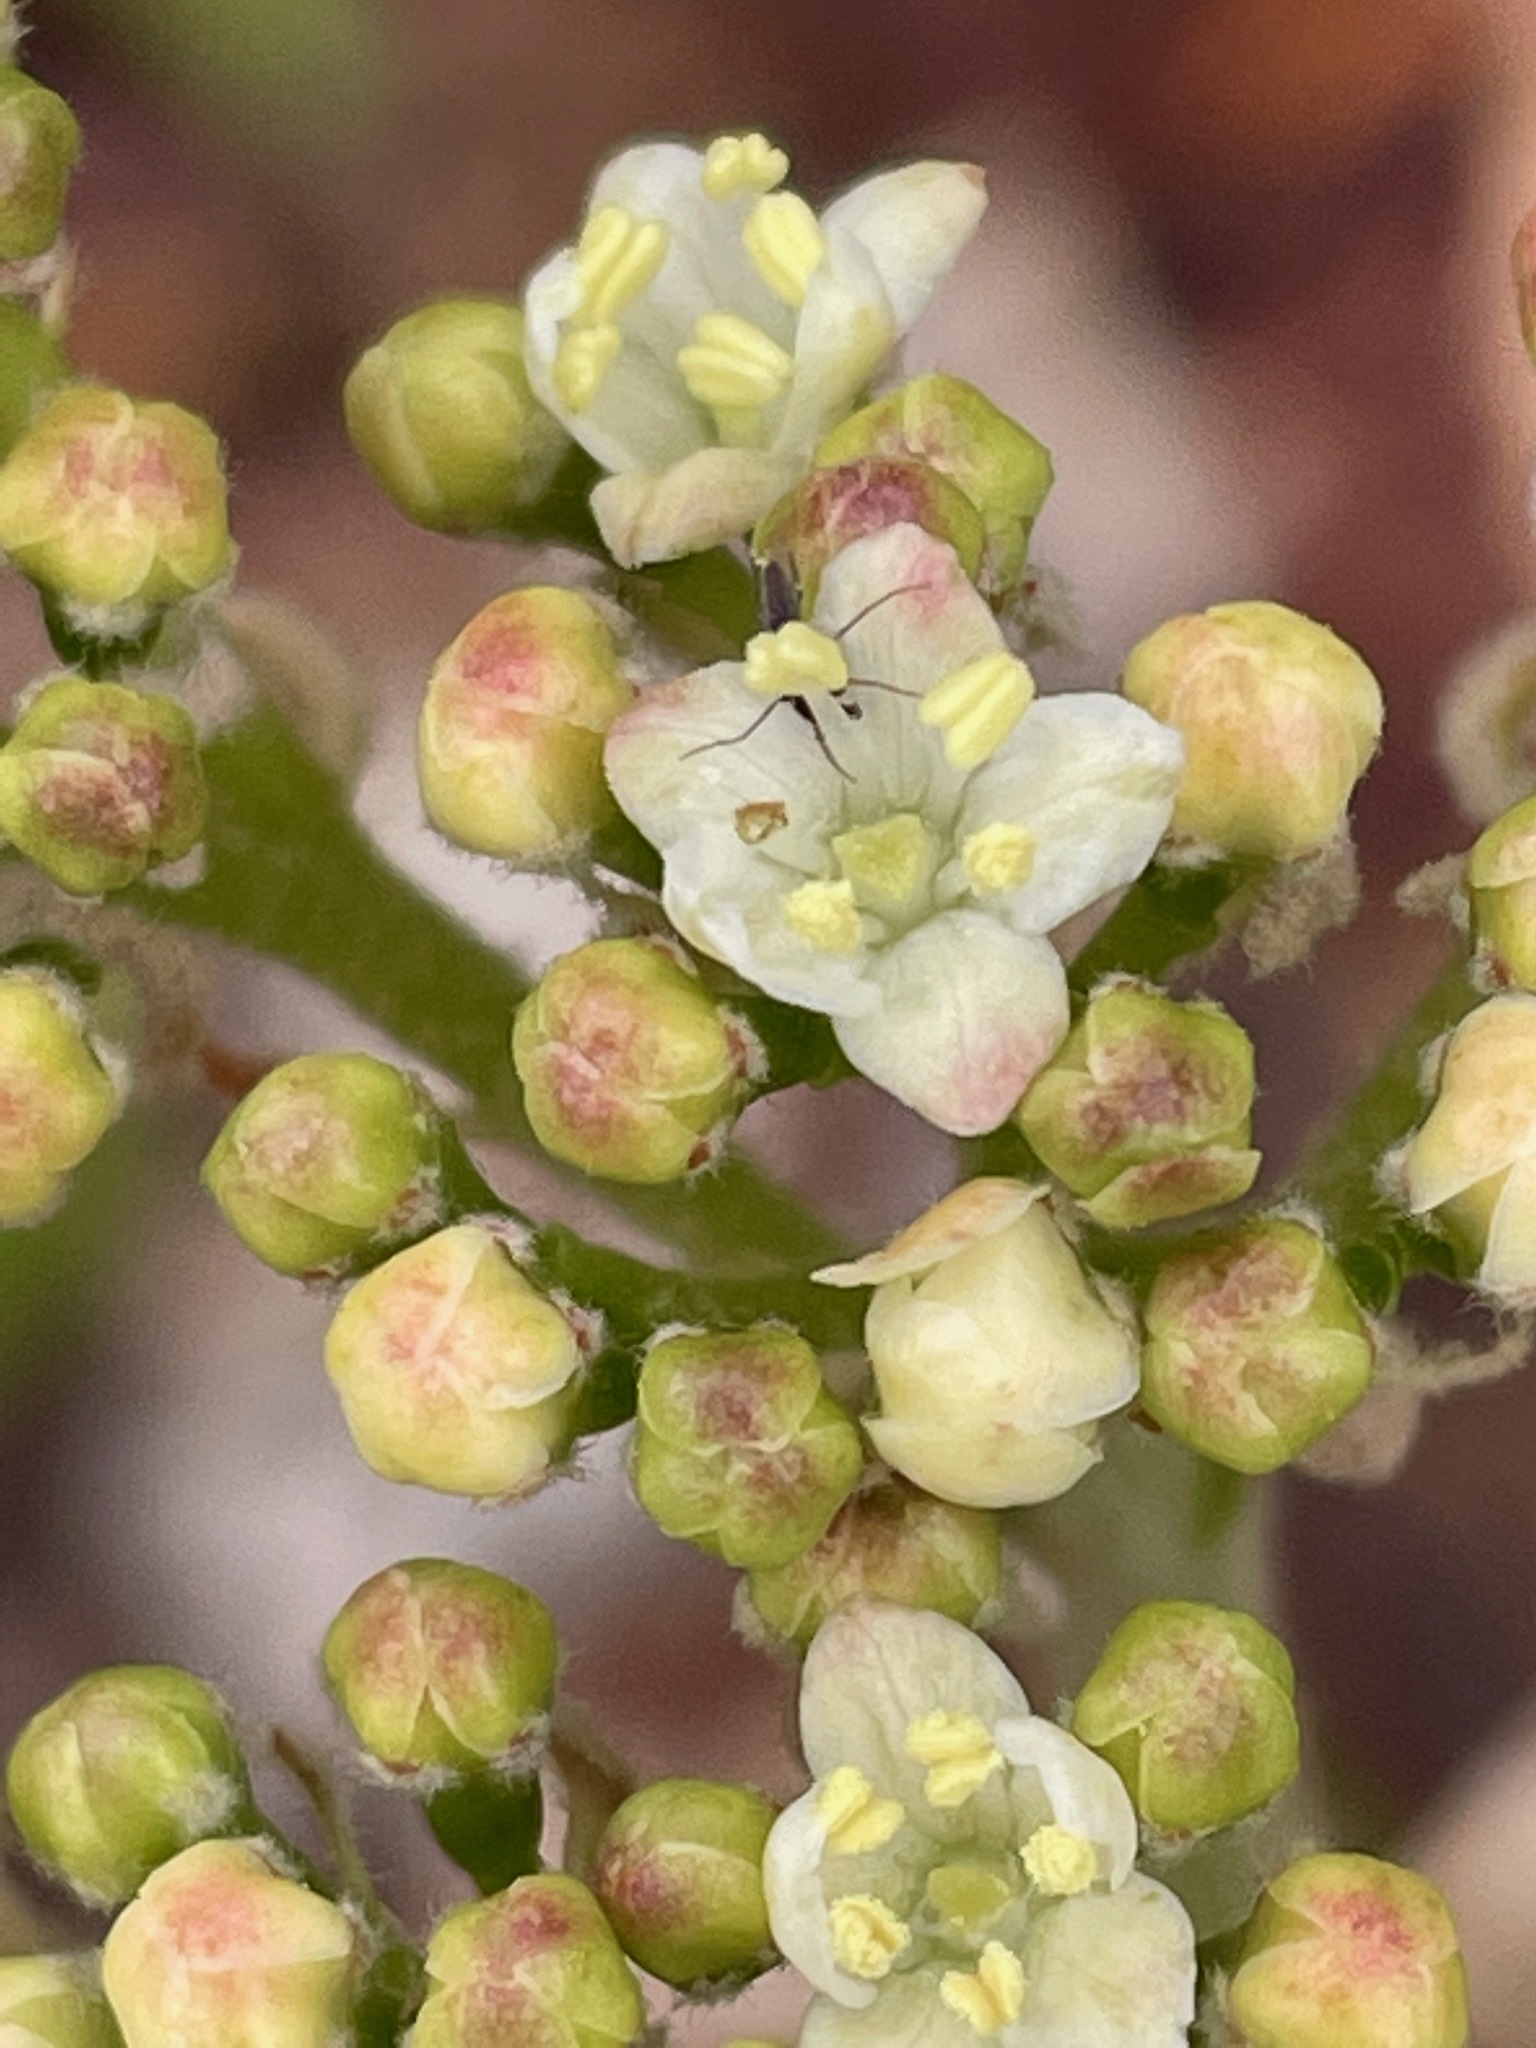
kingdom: Plantae
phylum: Tracheophyta
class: Magnoliopsida
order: Dipsacales
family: Viburnaceae
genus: Viburnum
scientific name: Viburnum lantanoides
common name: Hobblebush
